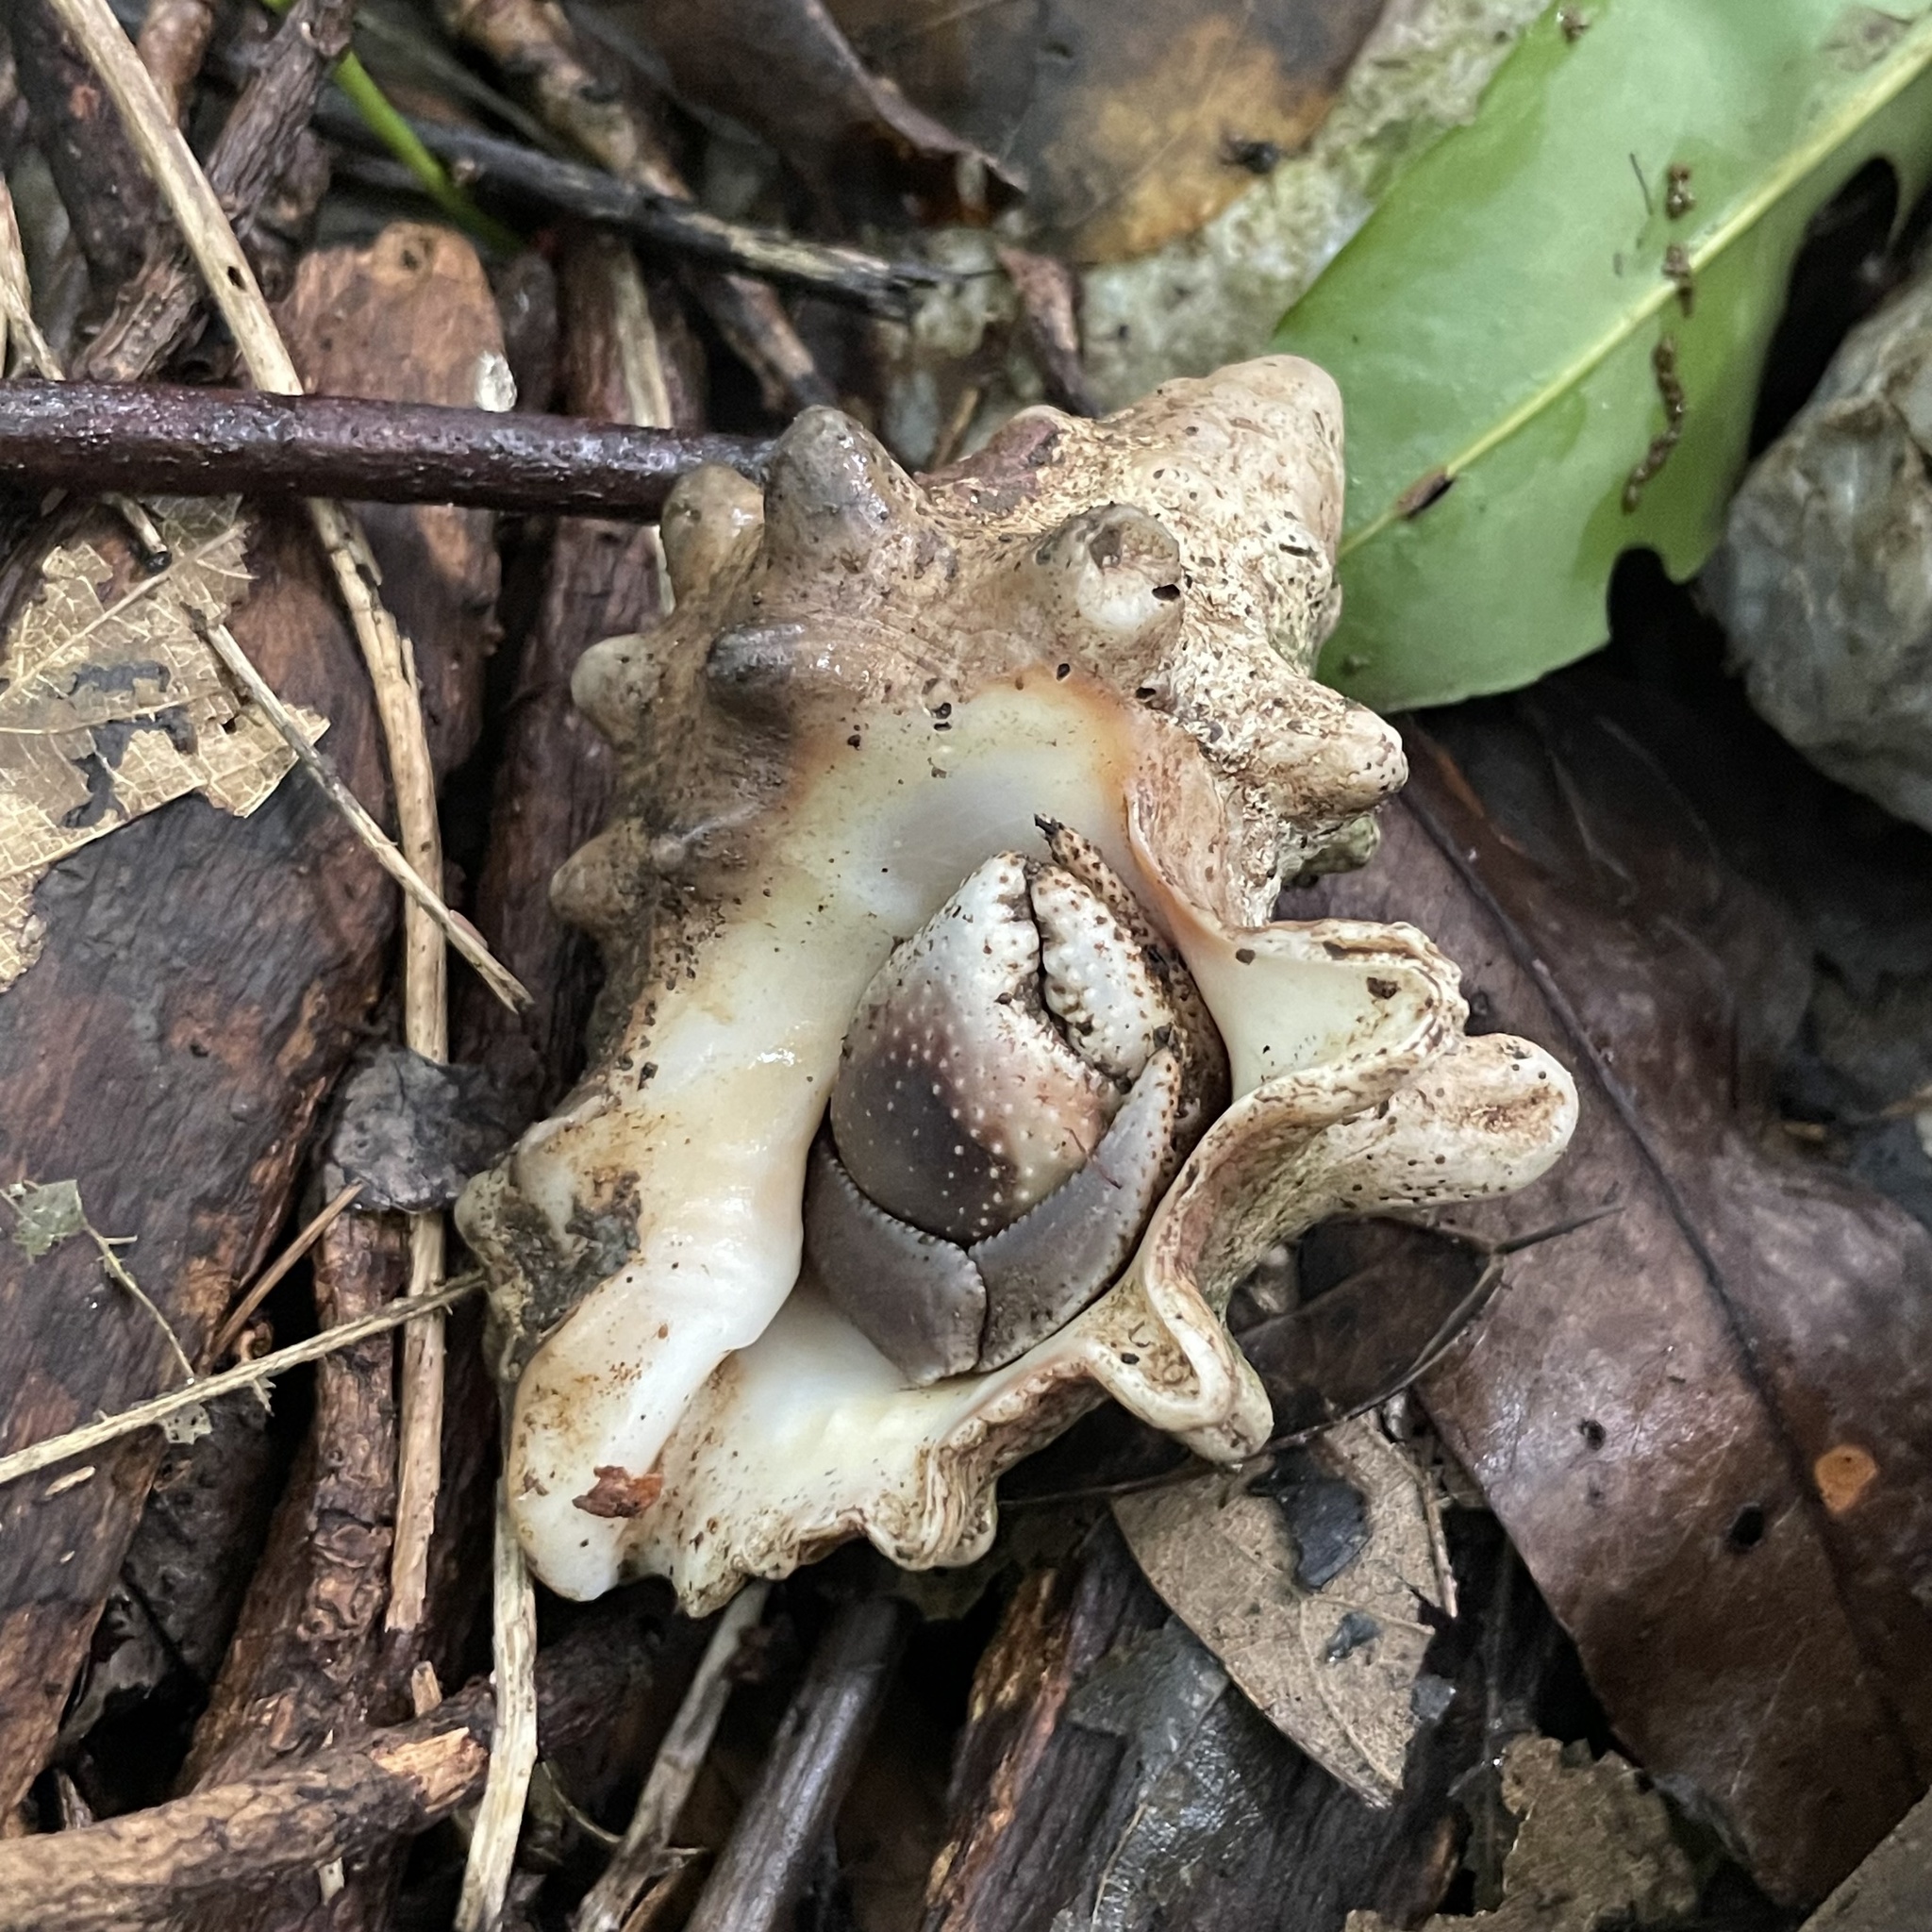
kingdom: Animalia
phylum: Arthropoda
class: Malacostraca
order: Decapoda
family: Coenobitidae
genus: Coenobita
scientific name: Coenobita cavipes
